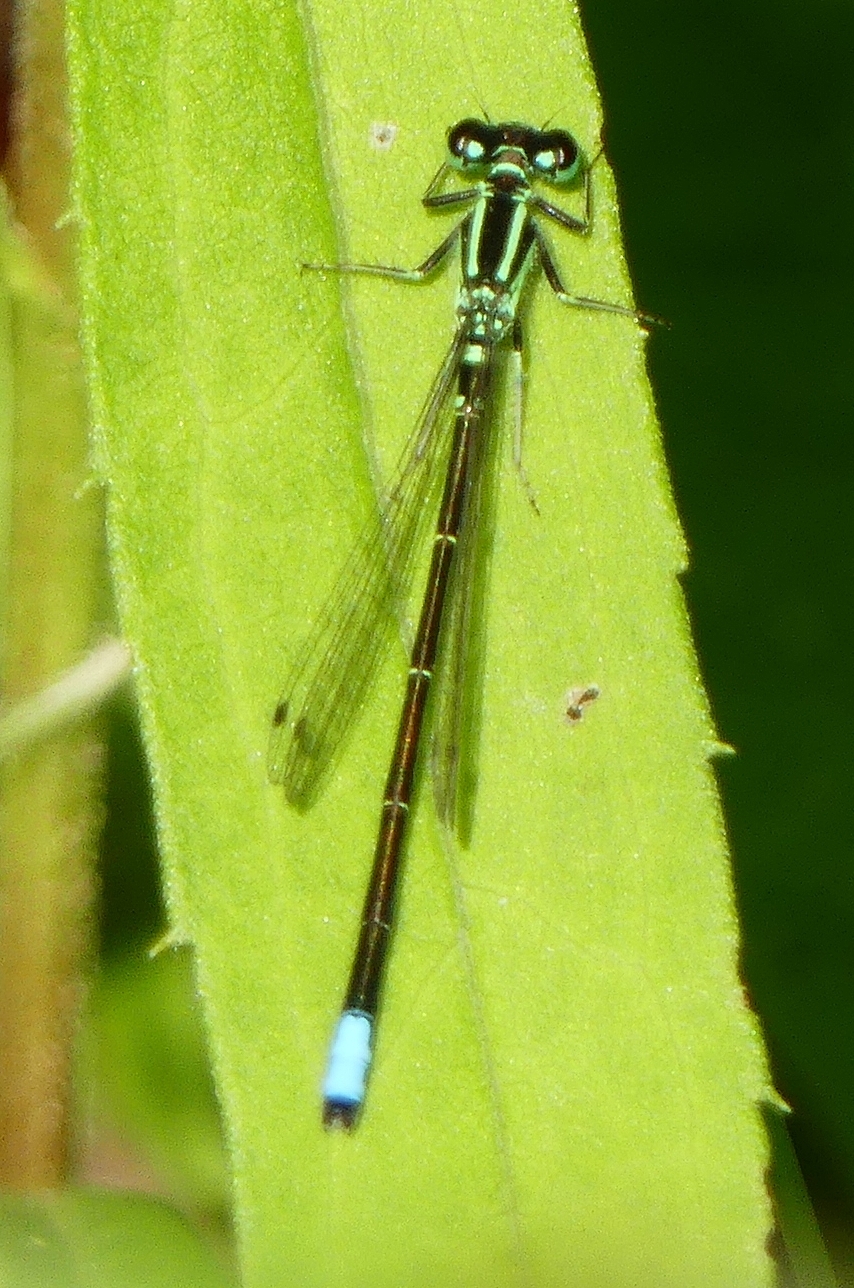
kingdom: Animalia
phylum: Arthropoda
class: Insecta
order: Odonata
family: Coenagrionidae
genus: Ischnura
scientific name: Ischnura verticalis
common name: Eastern forktail
